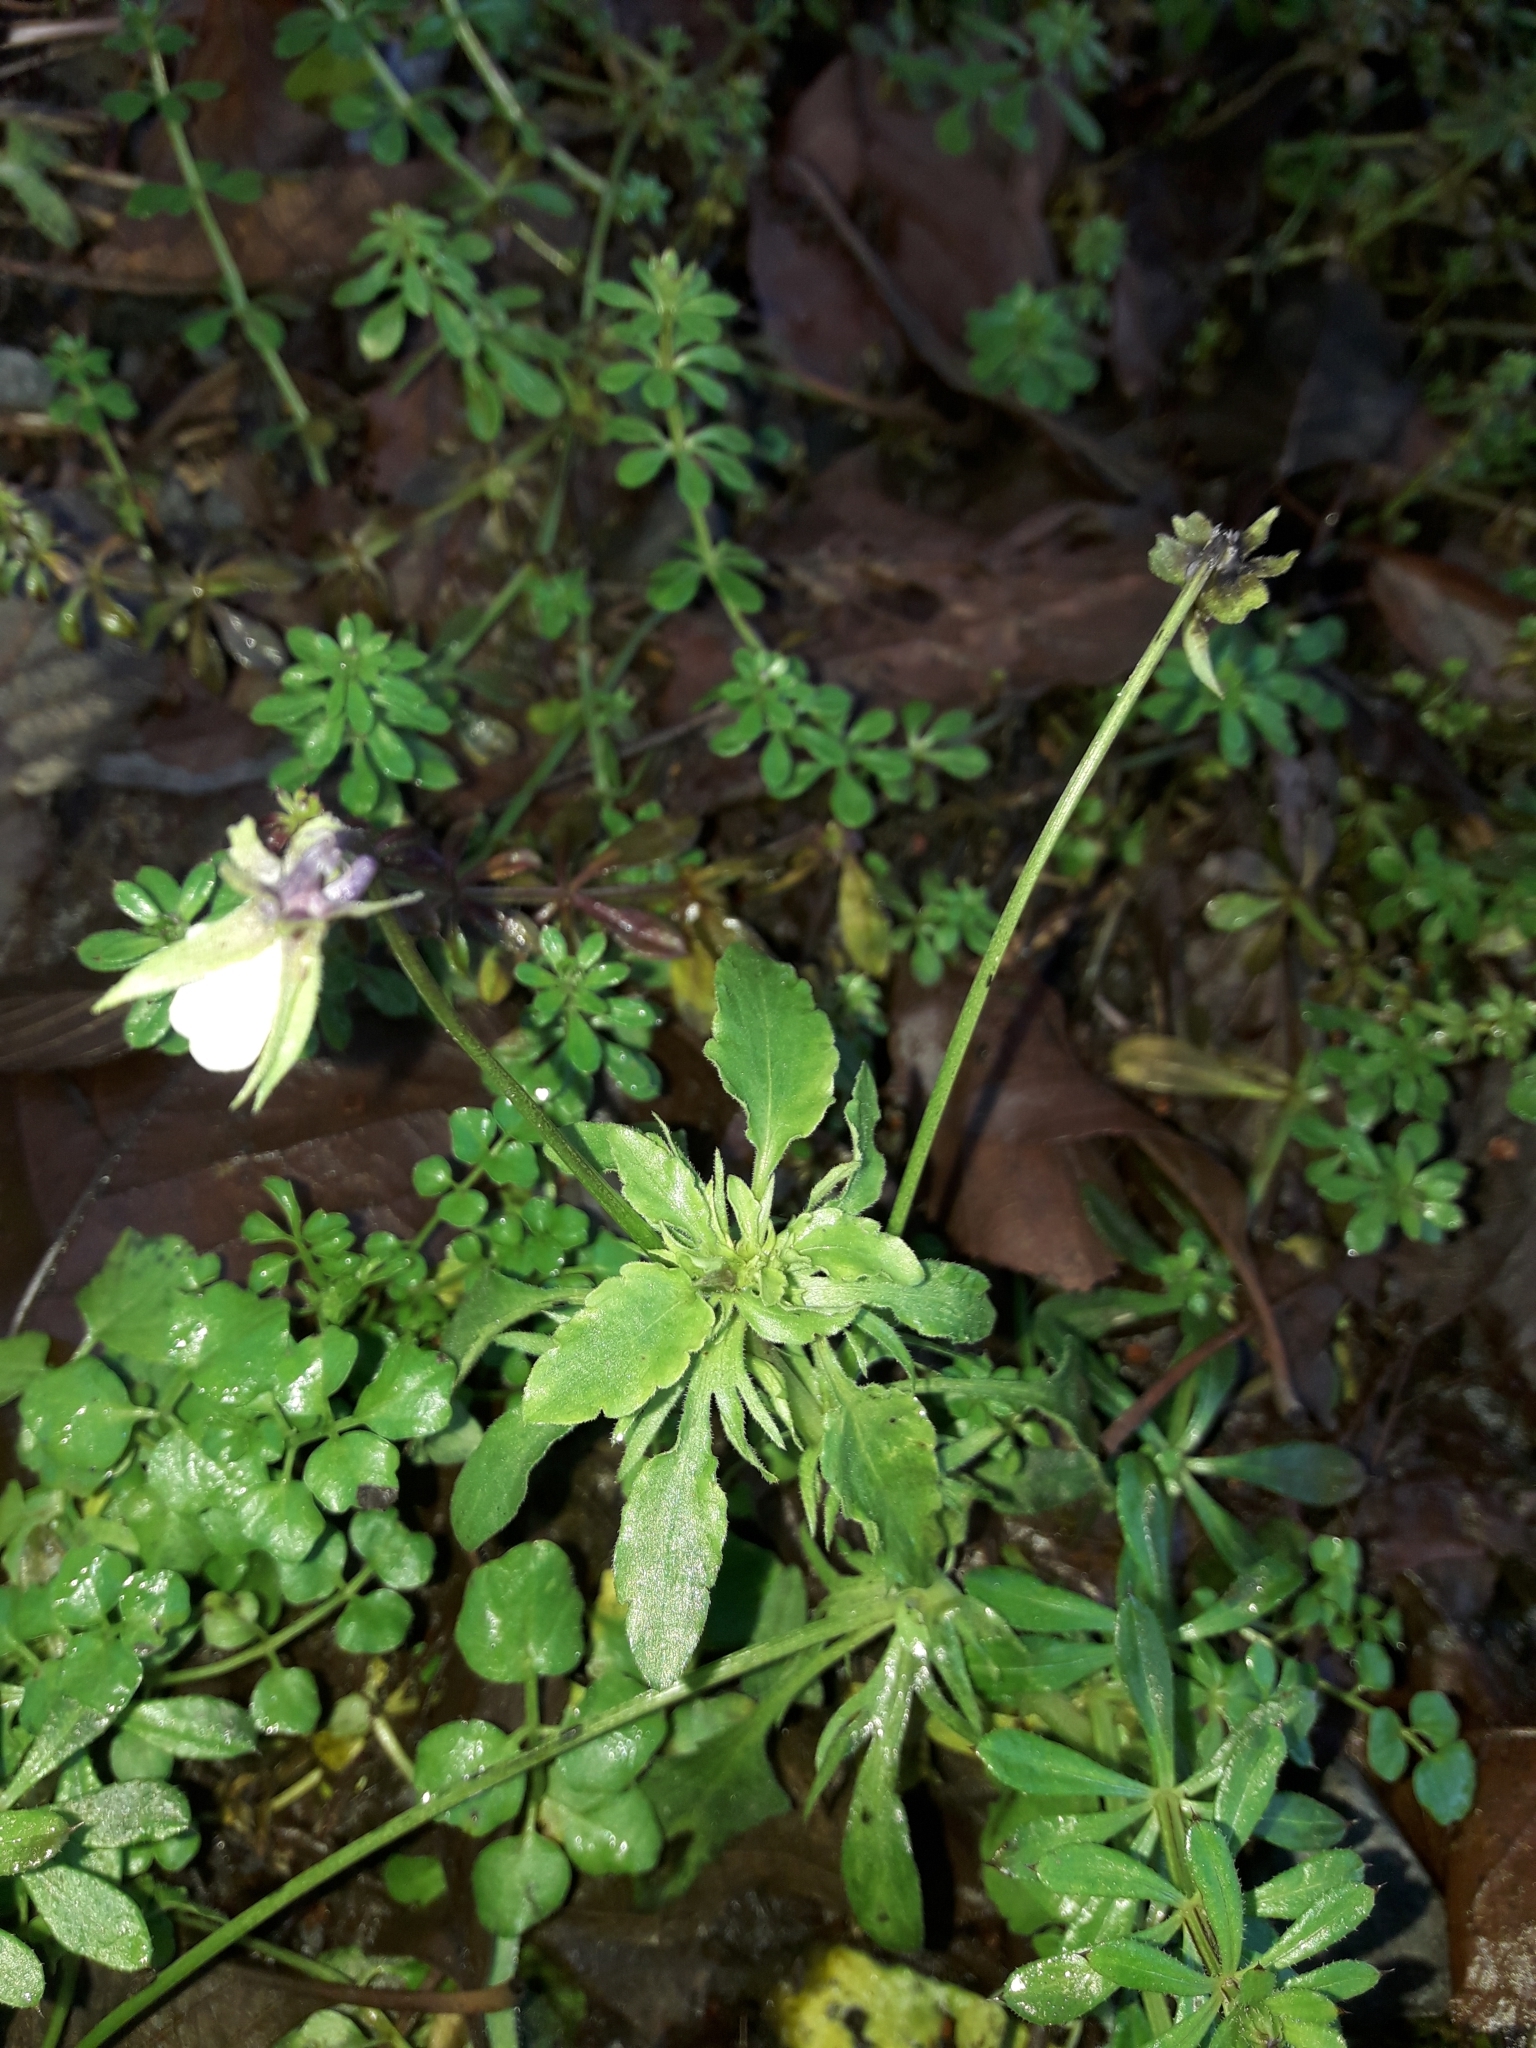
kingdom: Plantae
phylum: Tracheophyta
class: Magnoliopsida
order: Malpighiales
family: Violaceae
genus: Viola
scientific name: Viola arvensis
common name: Field pansy
